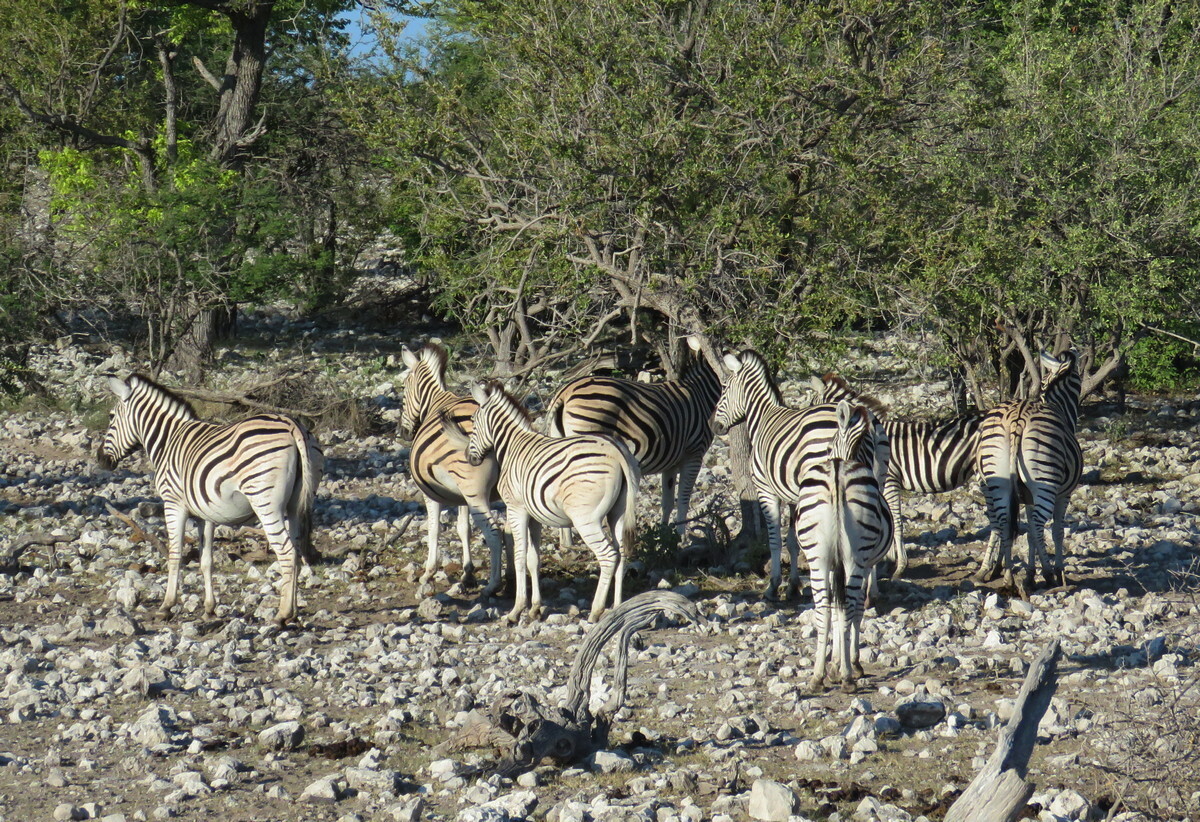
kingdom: Animalia
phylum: Chordata
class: Mammalia
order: Perissodactyla
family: Equidae
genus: Equus
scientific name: Equus quagga
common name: Plains zebra
